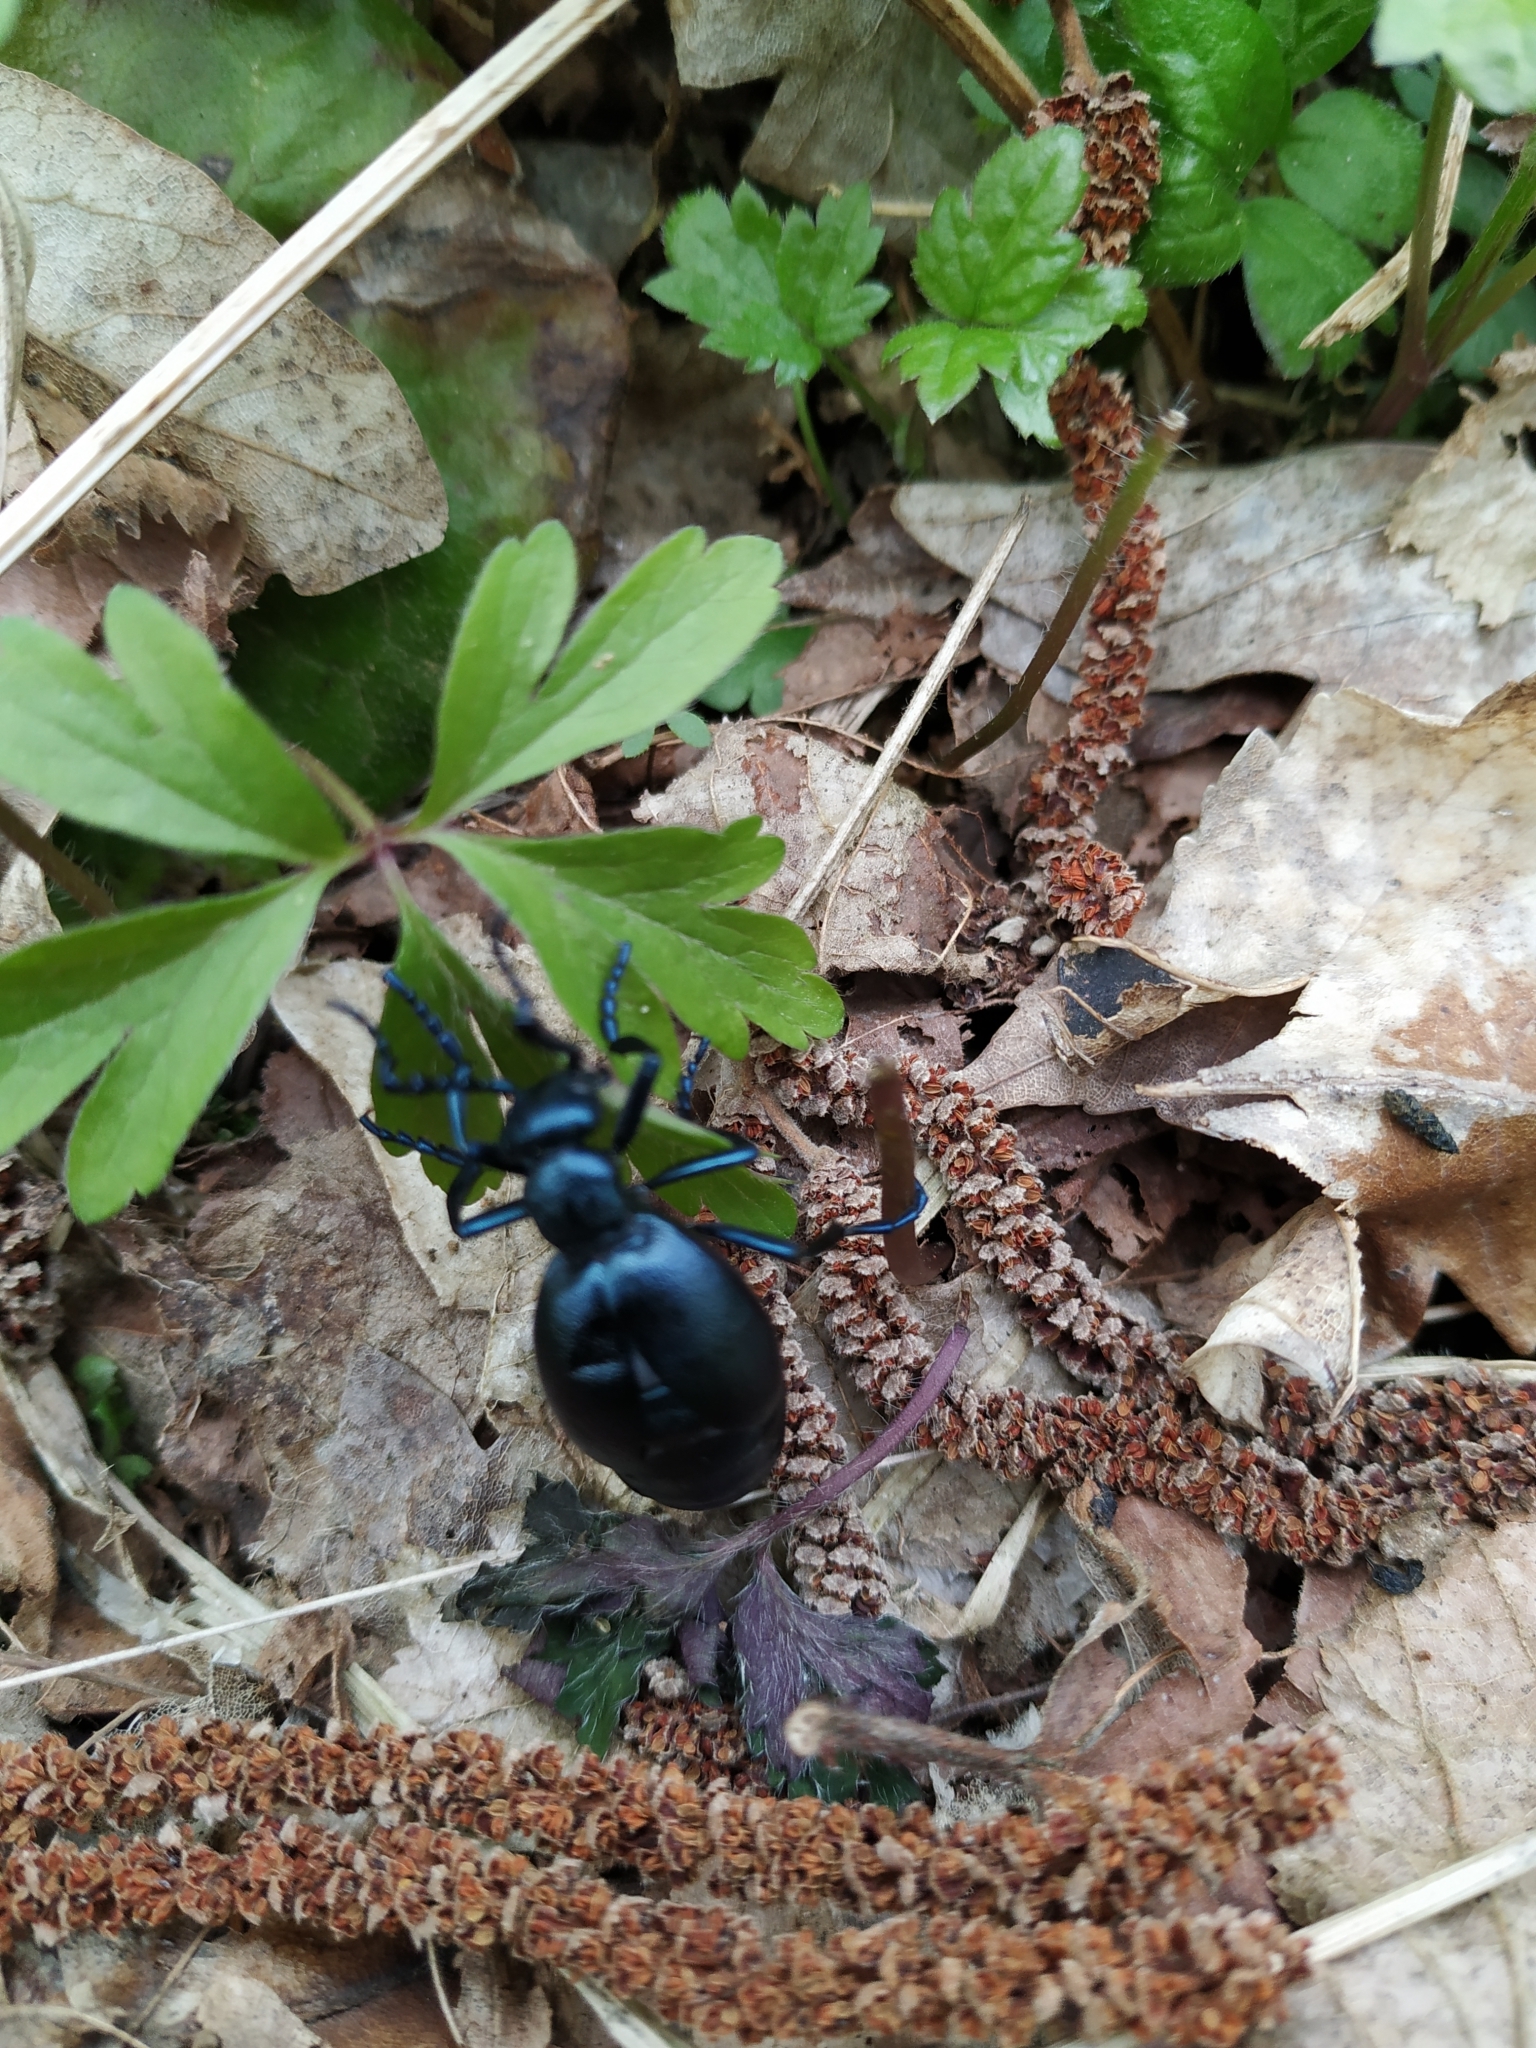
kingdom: Animalia
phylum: Arthropoda
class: Insecta
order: Coleoptera
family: Meloidae
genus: Meloe
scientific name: Meloe violaceus
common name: Violet oil-beetle
